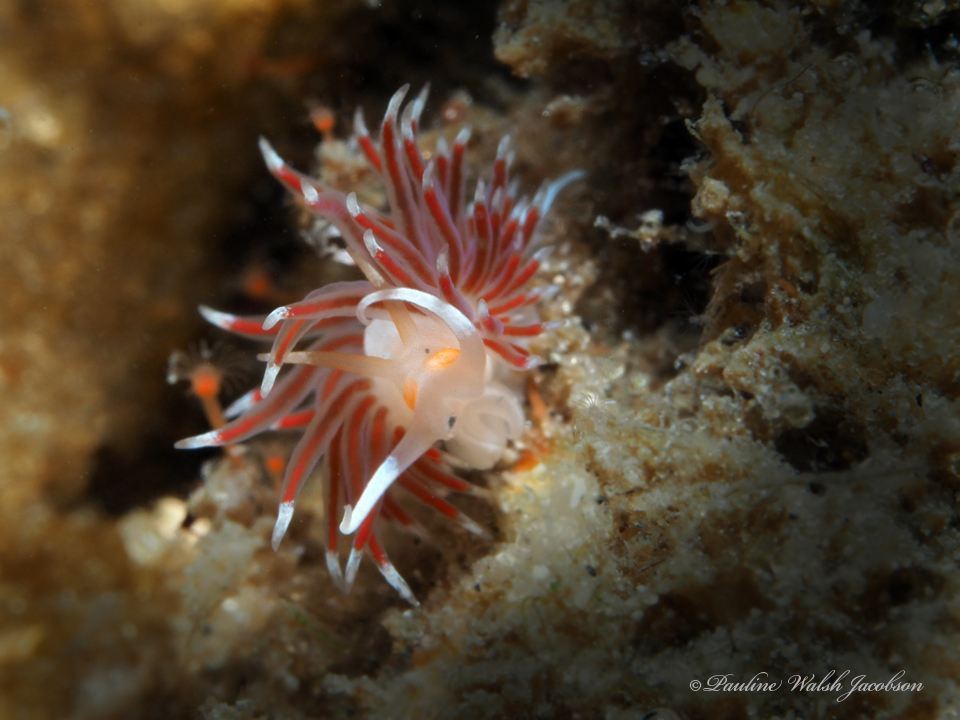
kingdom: Animalia
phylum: Mollusca
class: Gastropoda
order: Nudibranchia
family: Facelinidae
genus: Cratena
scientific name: Cratena minor
